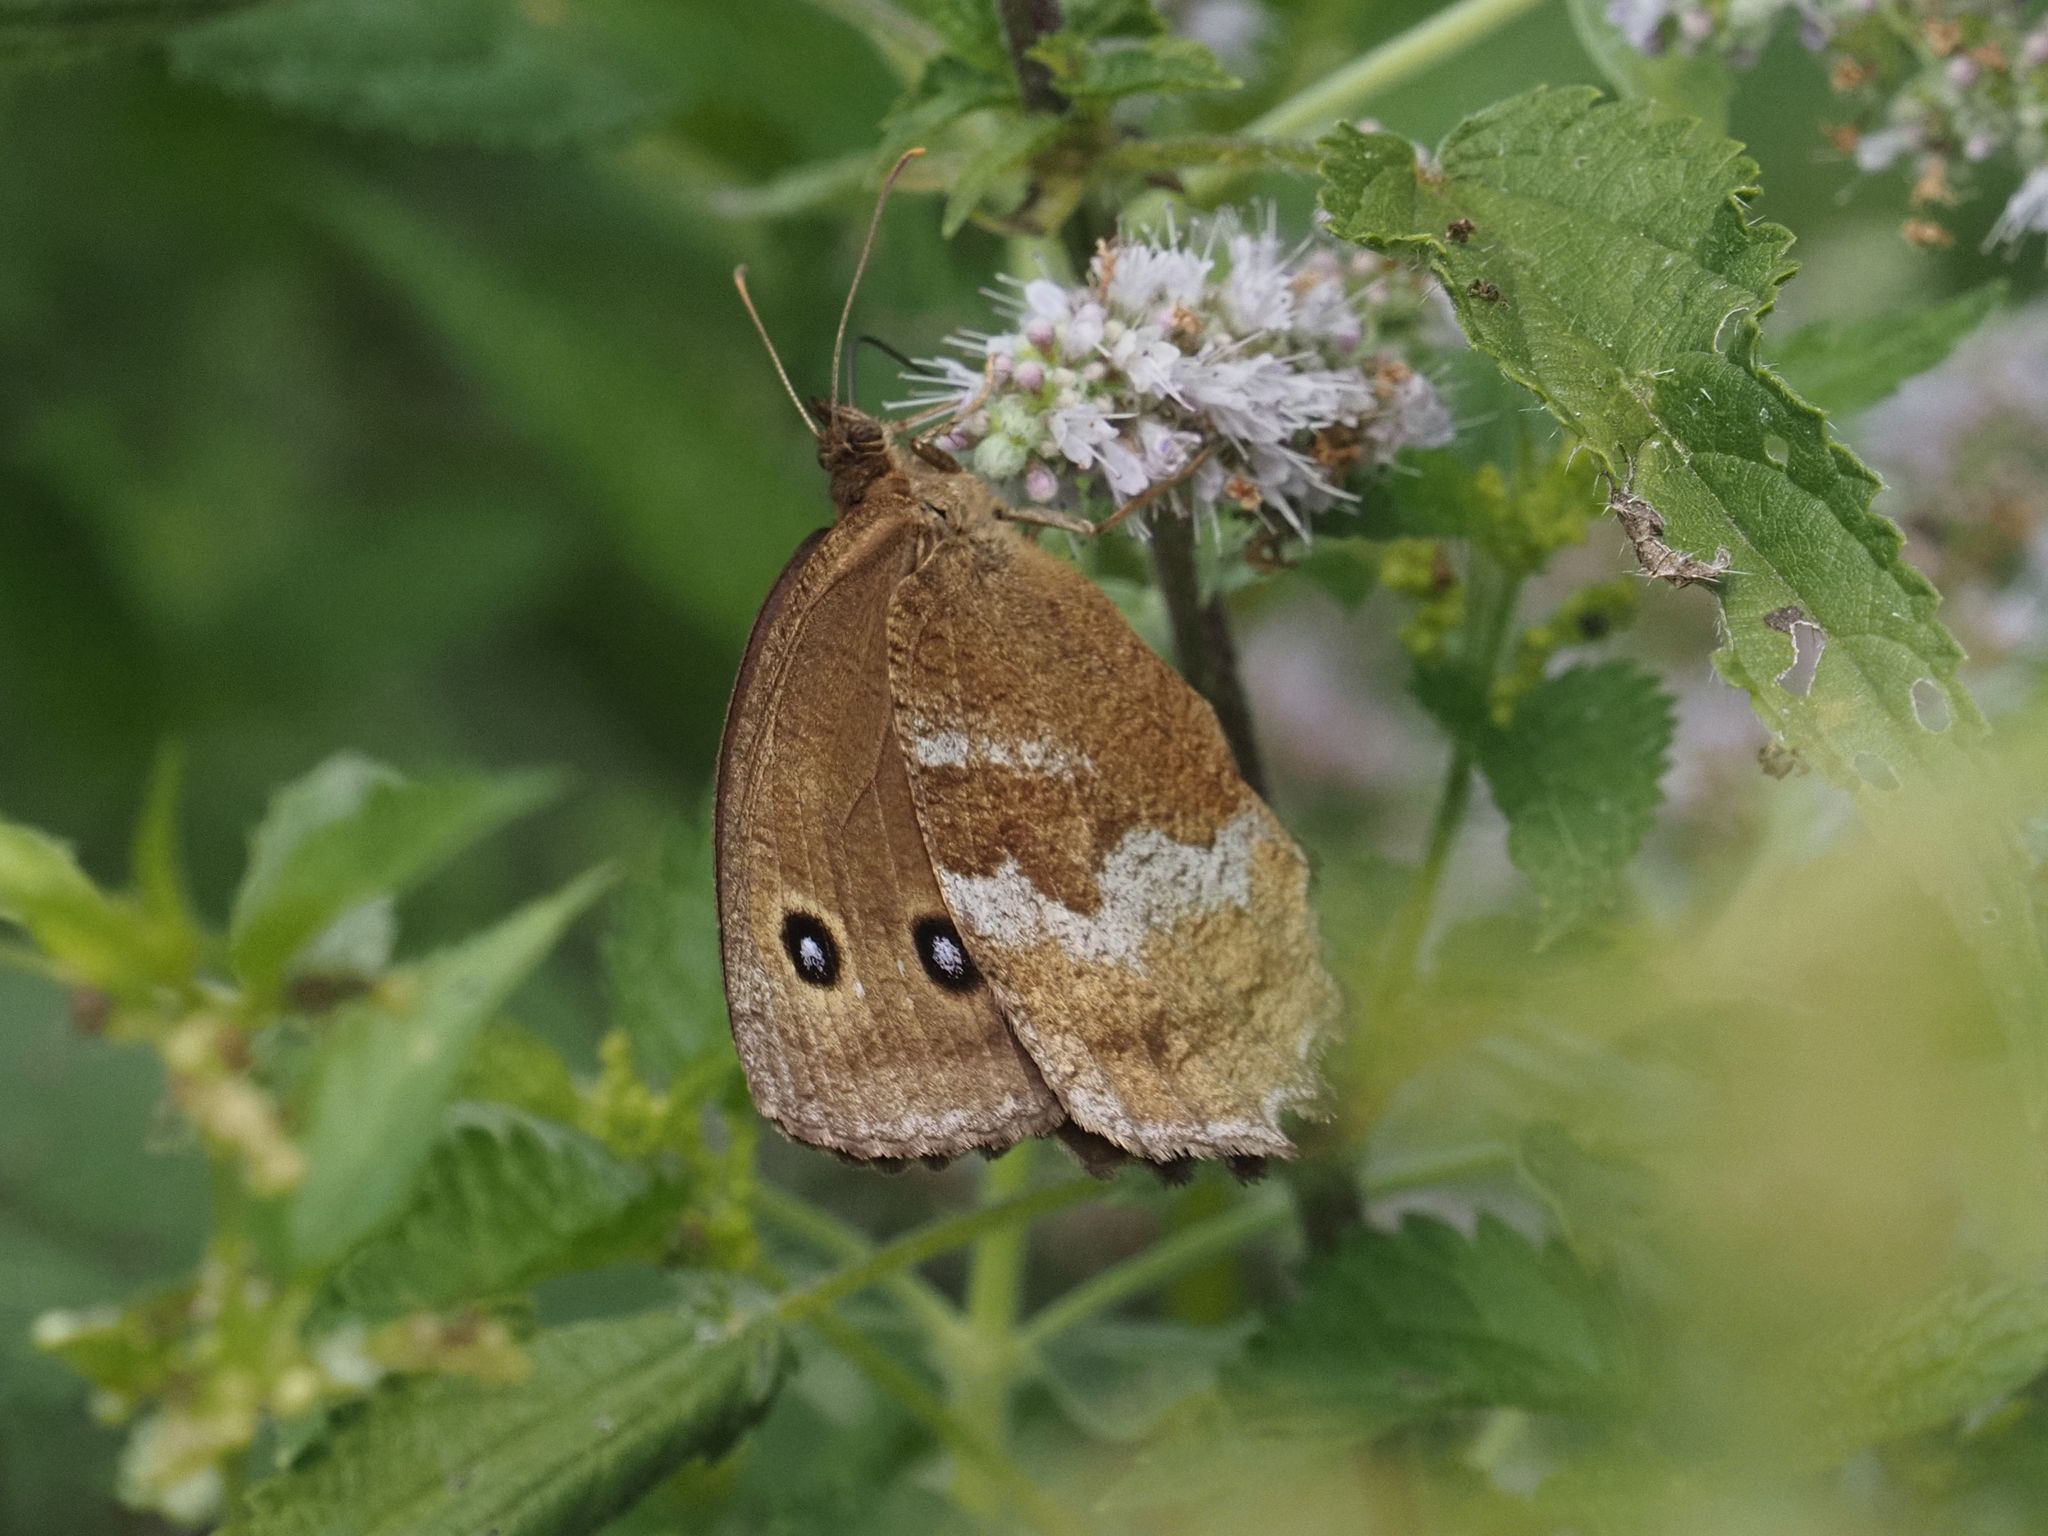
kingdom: Animalia
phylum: Arthropoda
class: Insecta
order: Lepidoptera
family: Nymphalidae
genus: Minois
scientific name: Minois dryas
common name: Dryad
